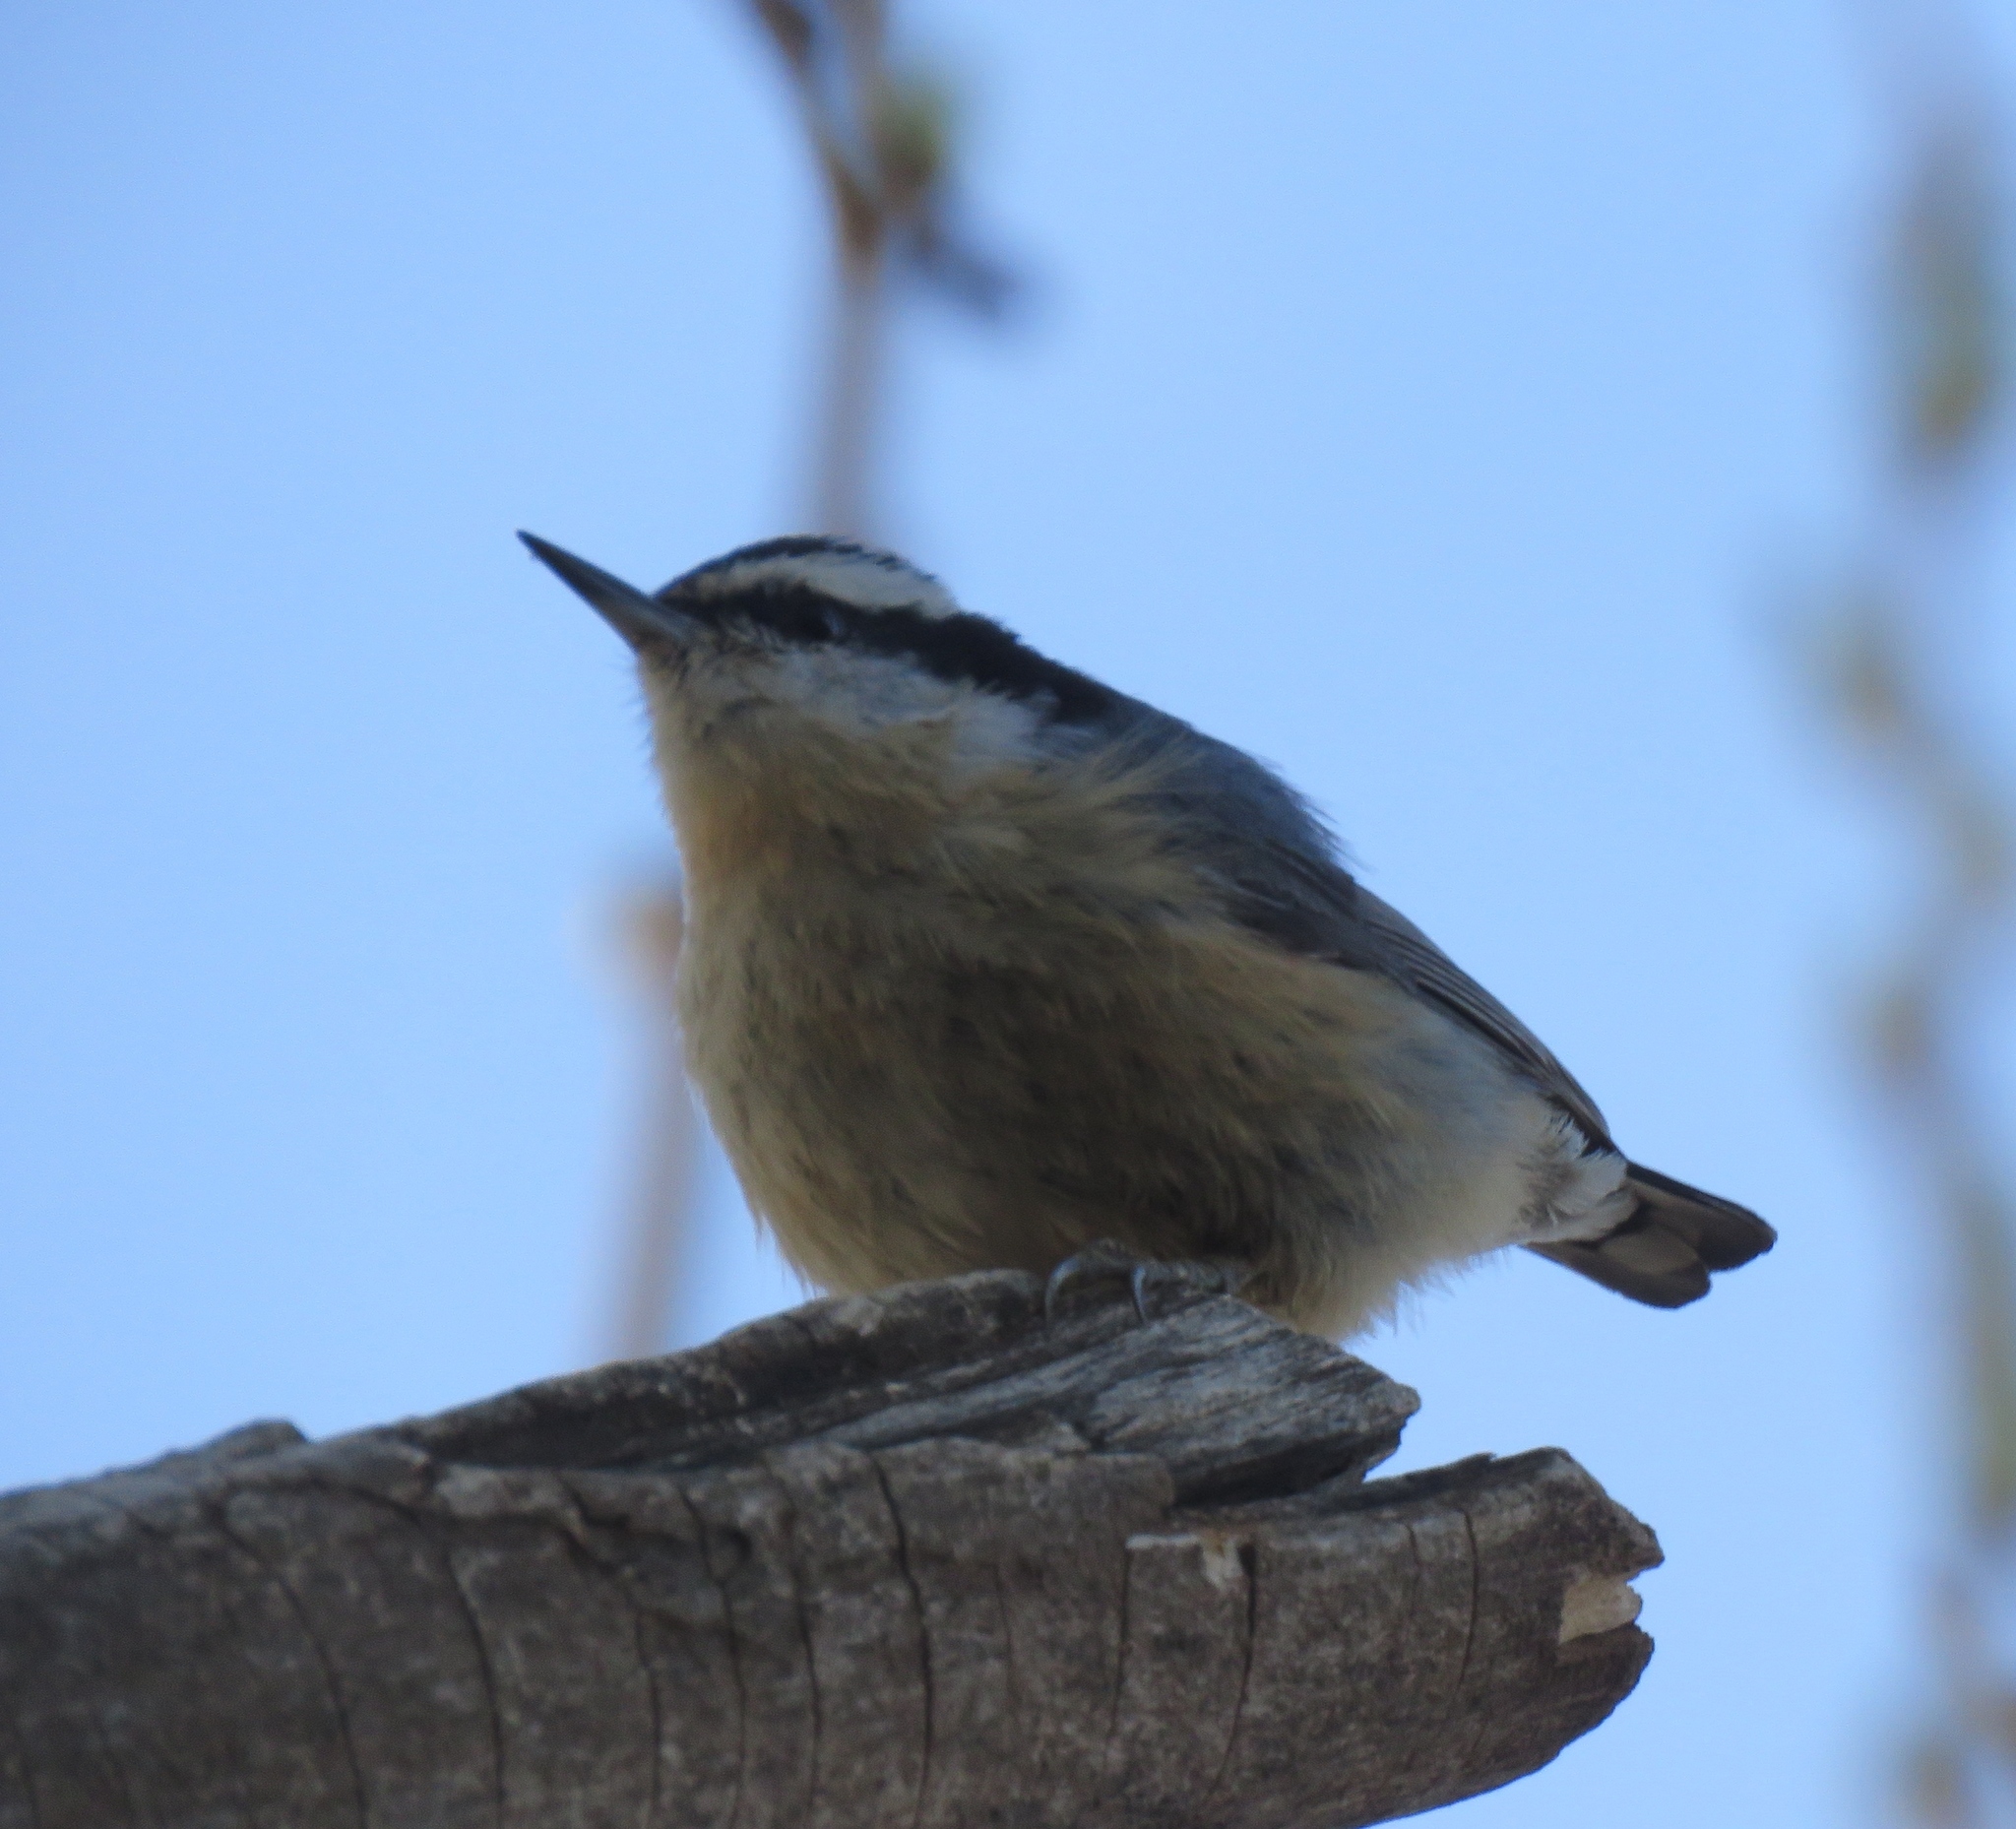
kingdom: Animalia
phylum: Chordata
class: Aves
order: Passeriformes
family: Sittidae
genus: Sitta
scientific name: Sitta canadensis
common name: Red-breasted nuthatch
